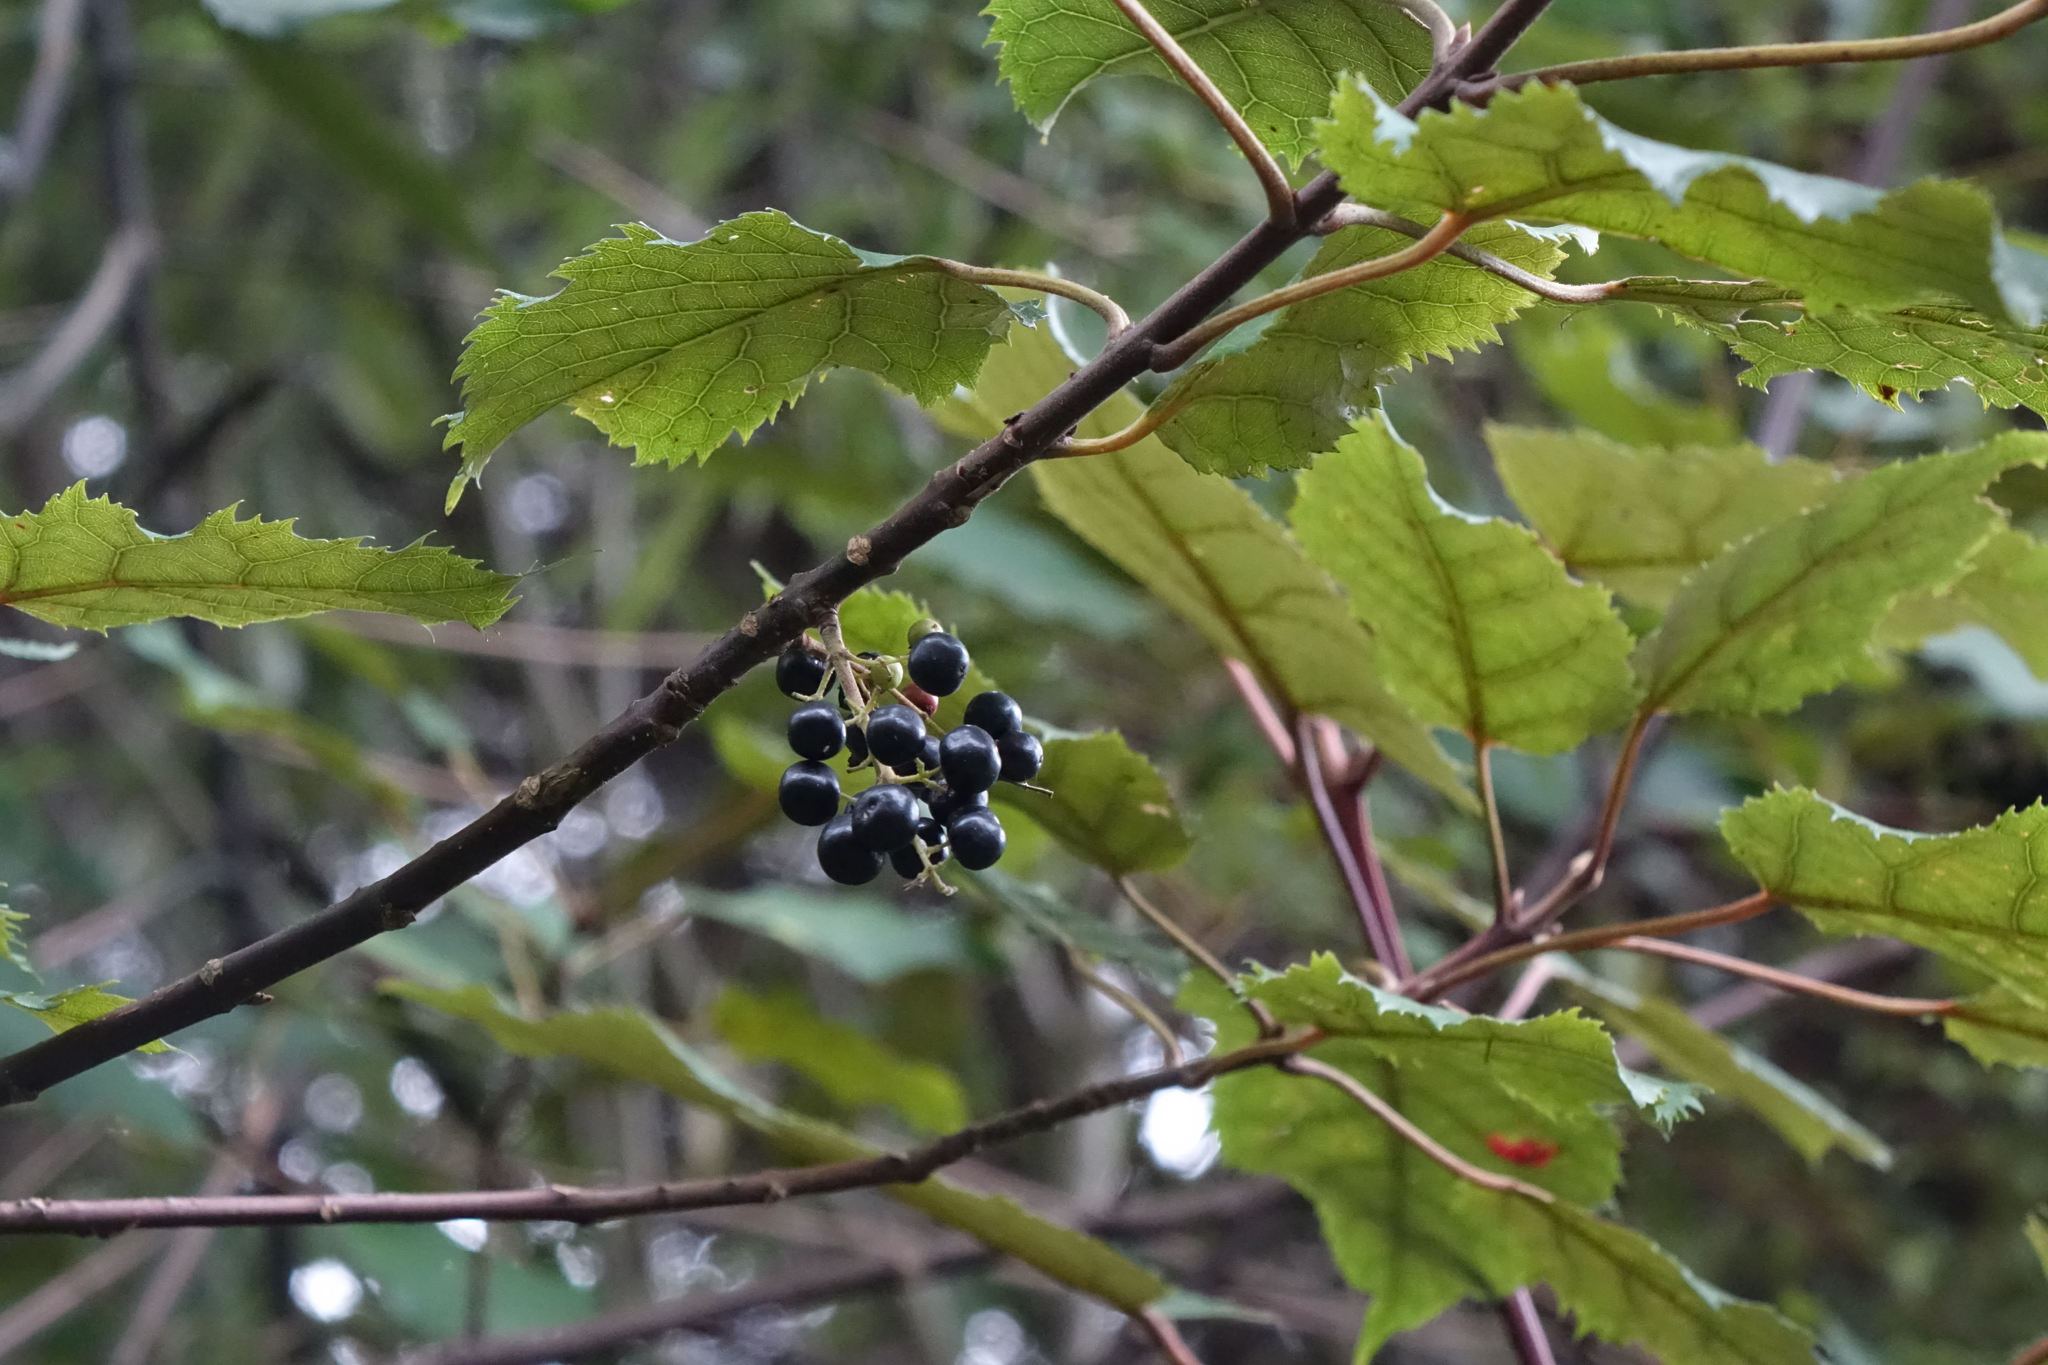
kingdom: Plantae
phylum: Tracheophyta
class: Magnoliopsida
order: Oxalidales
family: Elaeocarpaceae
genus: Aristotelia
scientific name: Aristotelia serrata
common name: New zealand wineberry
